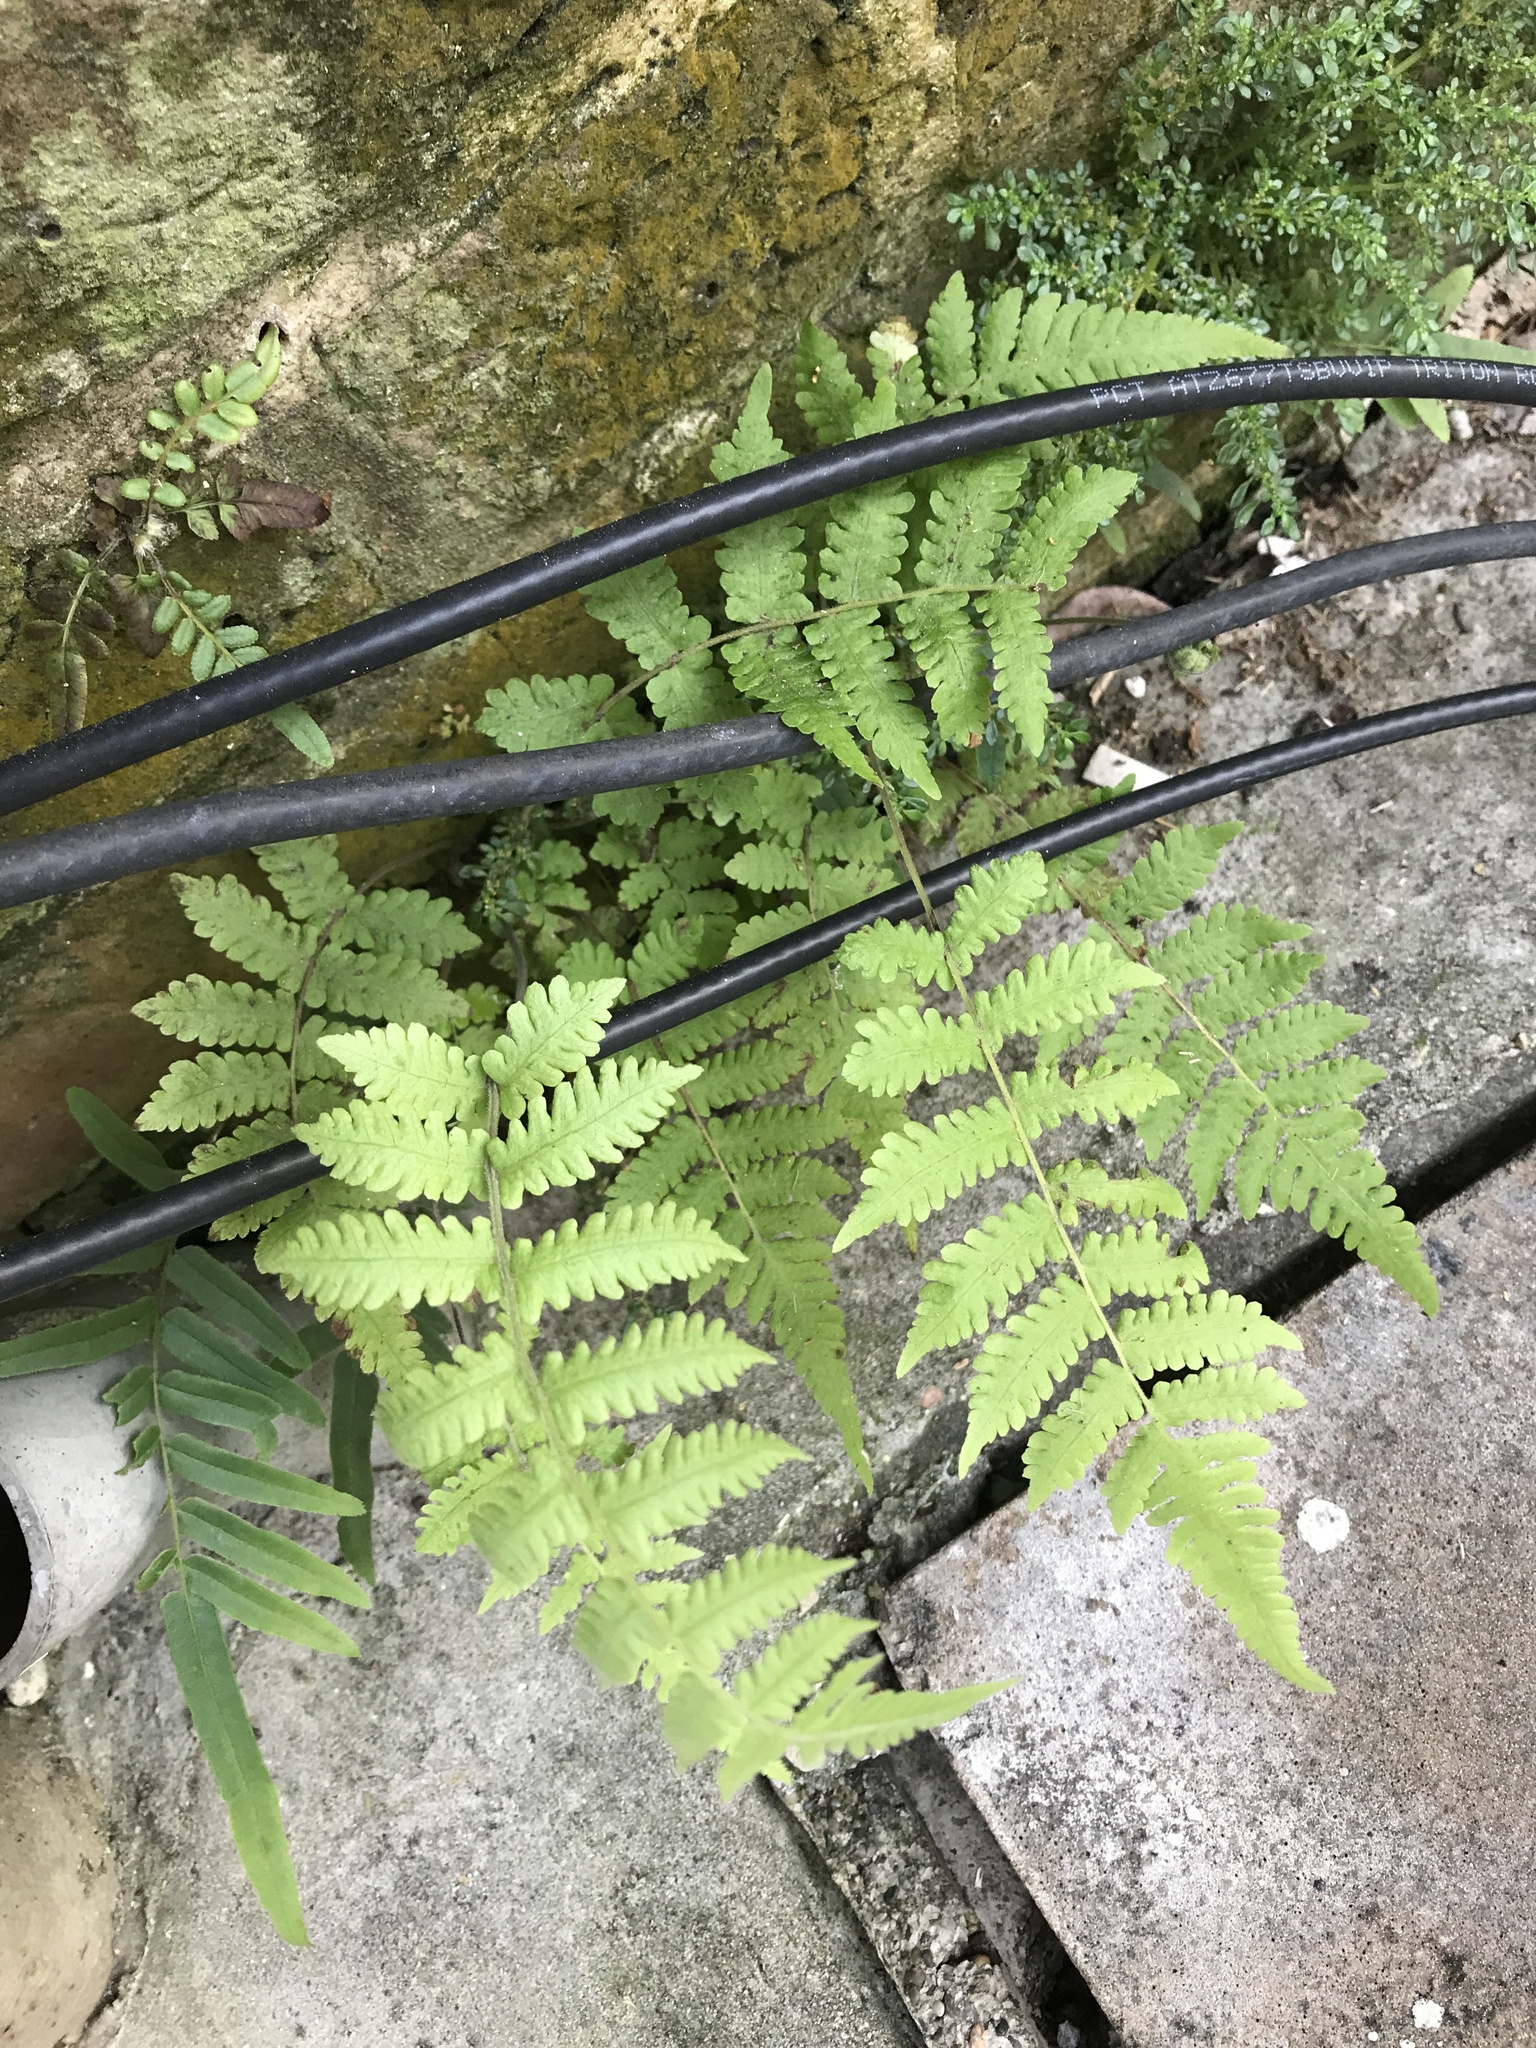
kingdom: Plantae
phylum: Tracheophyta
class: Polypodiopsida
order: Polypodiales
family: Thelypteridaceae
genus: Christella
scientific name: Christella dentata
